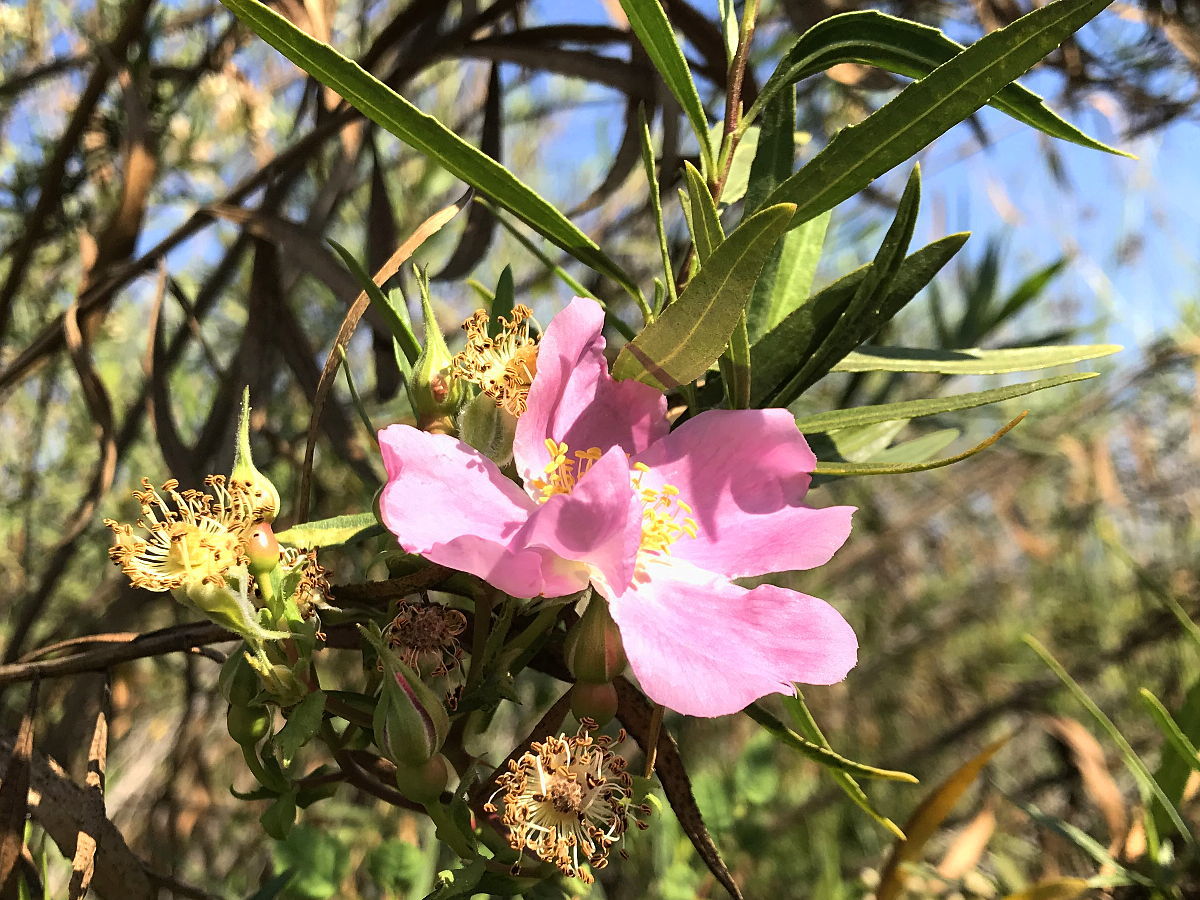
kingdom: Plantae
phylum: Tracheophyta
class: Magnoliopsida
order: Rosales
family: Rosaceae
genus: Rosa
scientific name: Rosa californica
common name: California rose
